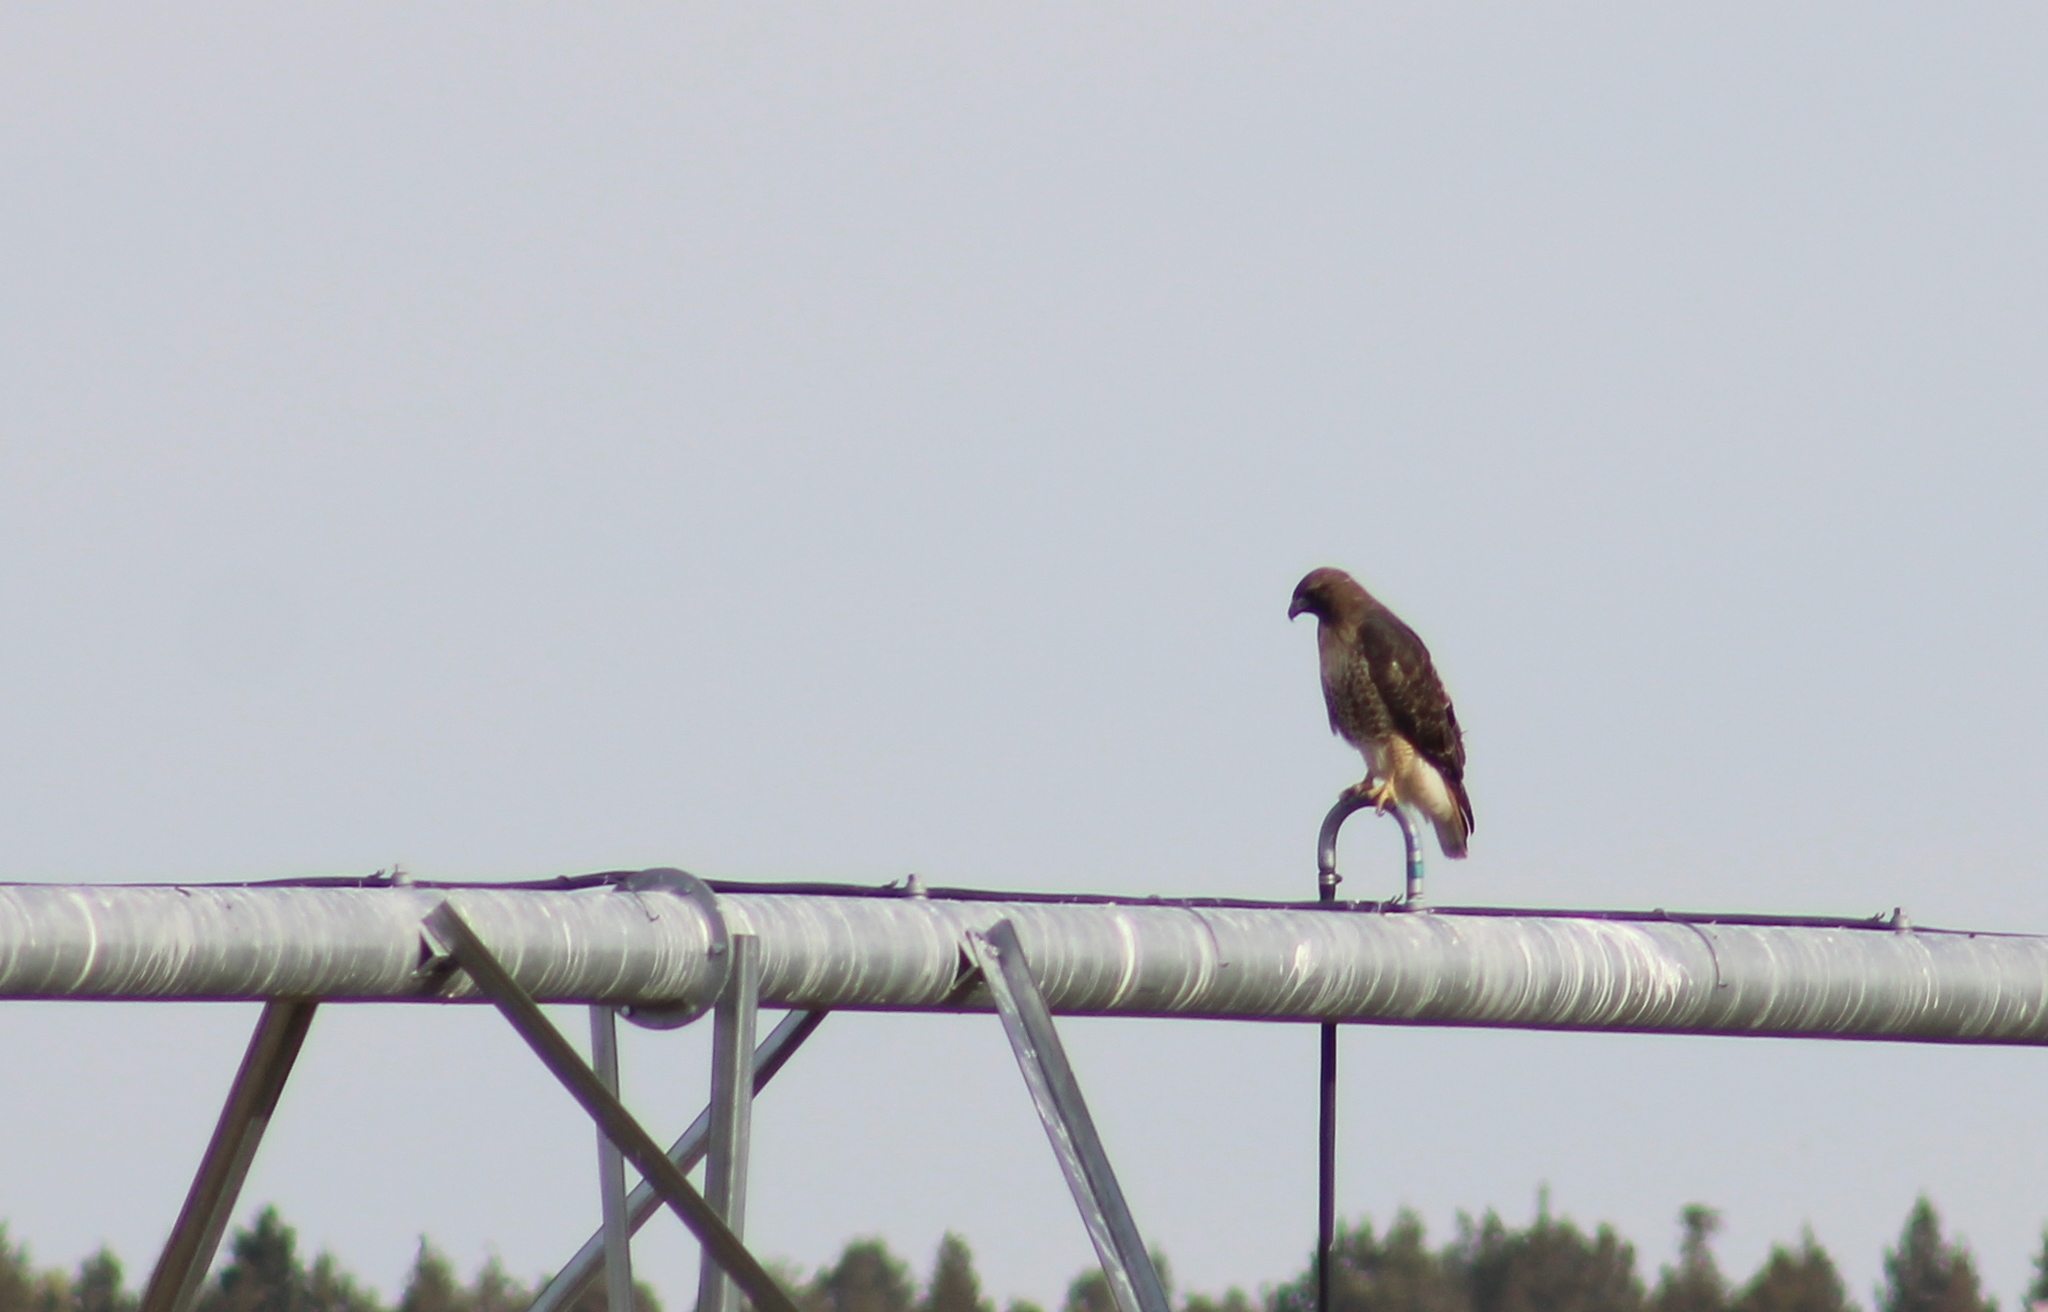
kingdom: Animalia
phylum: Chordata
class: Aves
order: Accipitriformes
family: Accipitridae
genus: Buteo
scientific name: Buteo jamaicensis
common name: Red-tailed hawk
